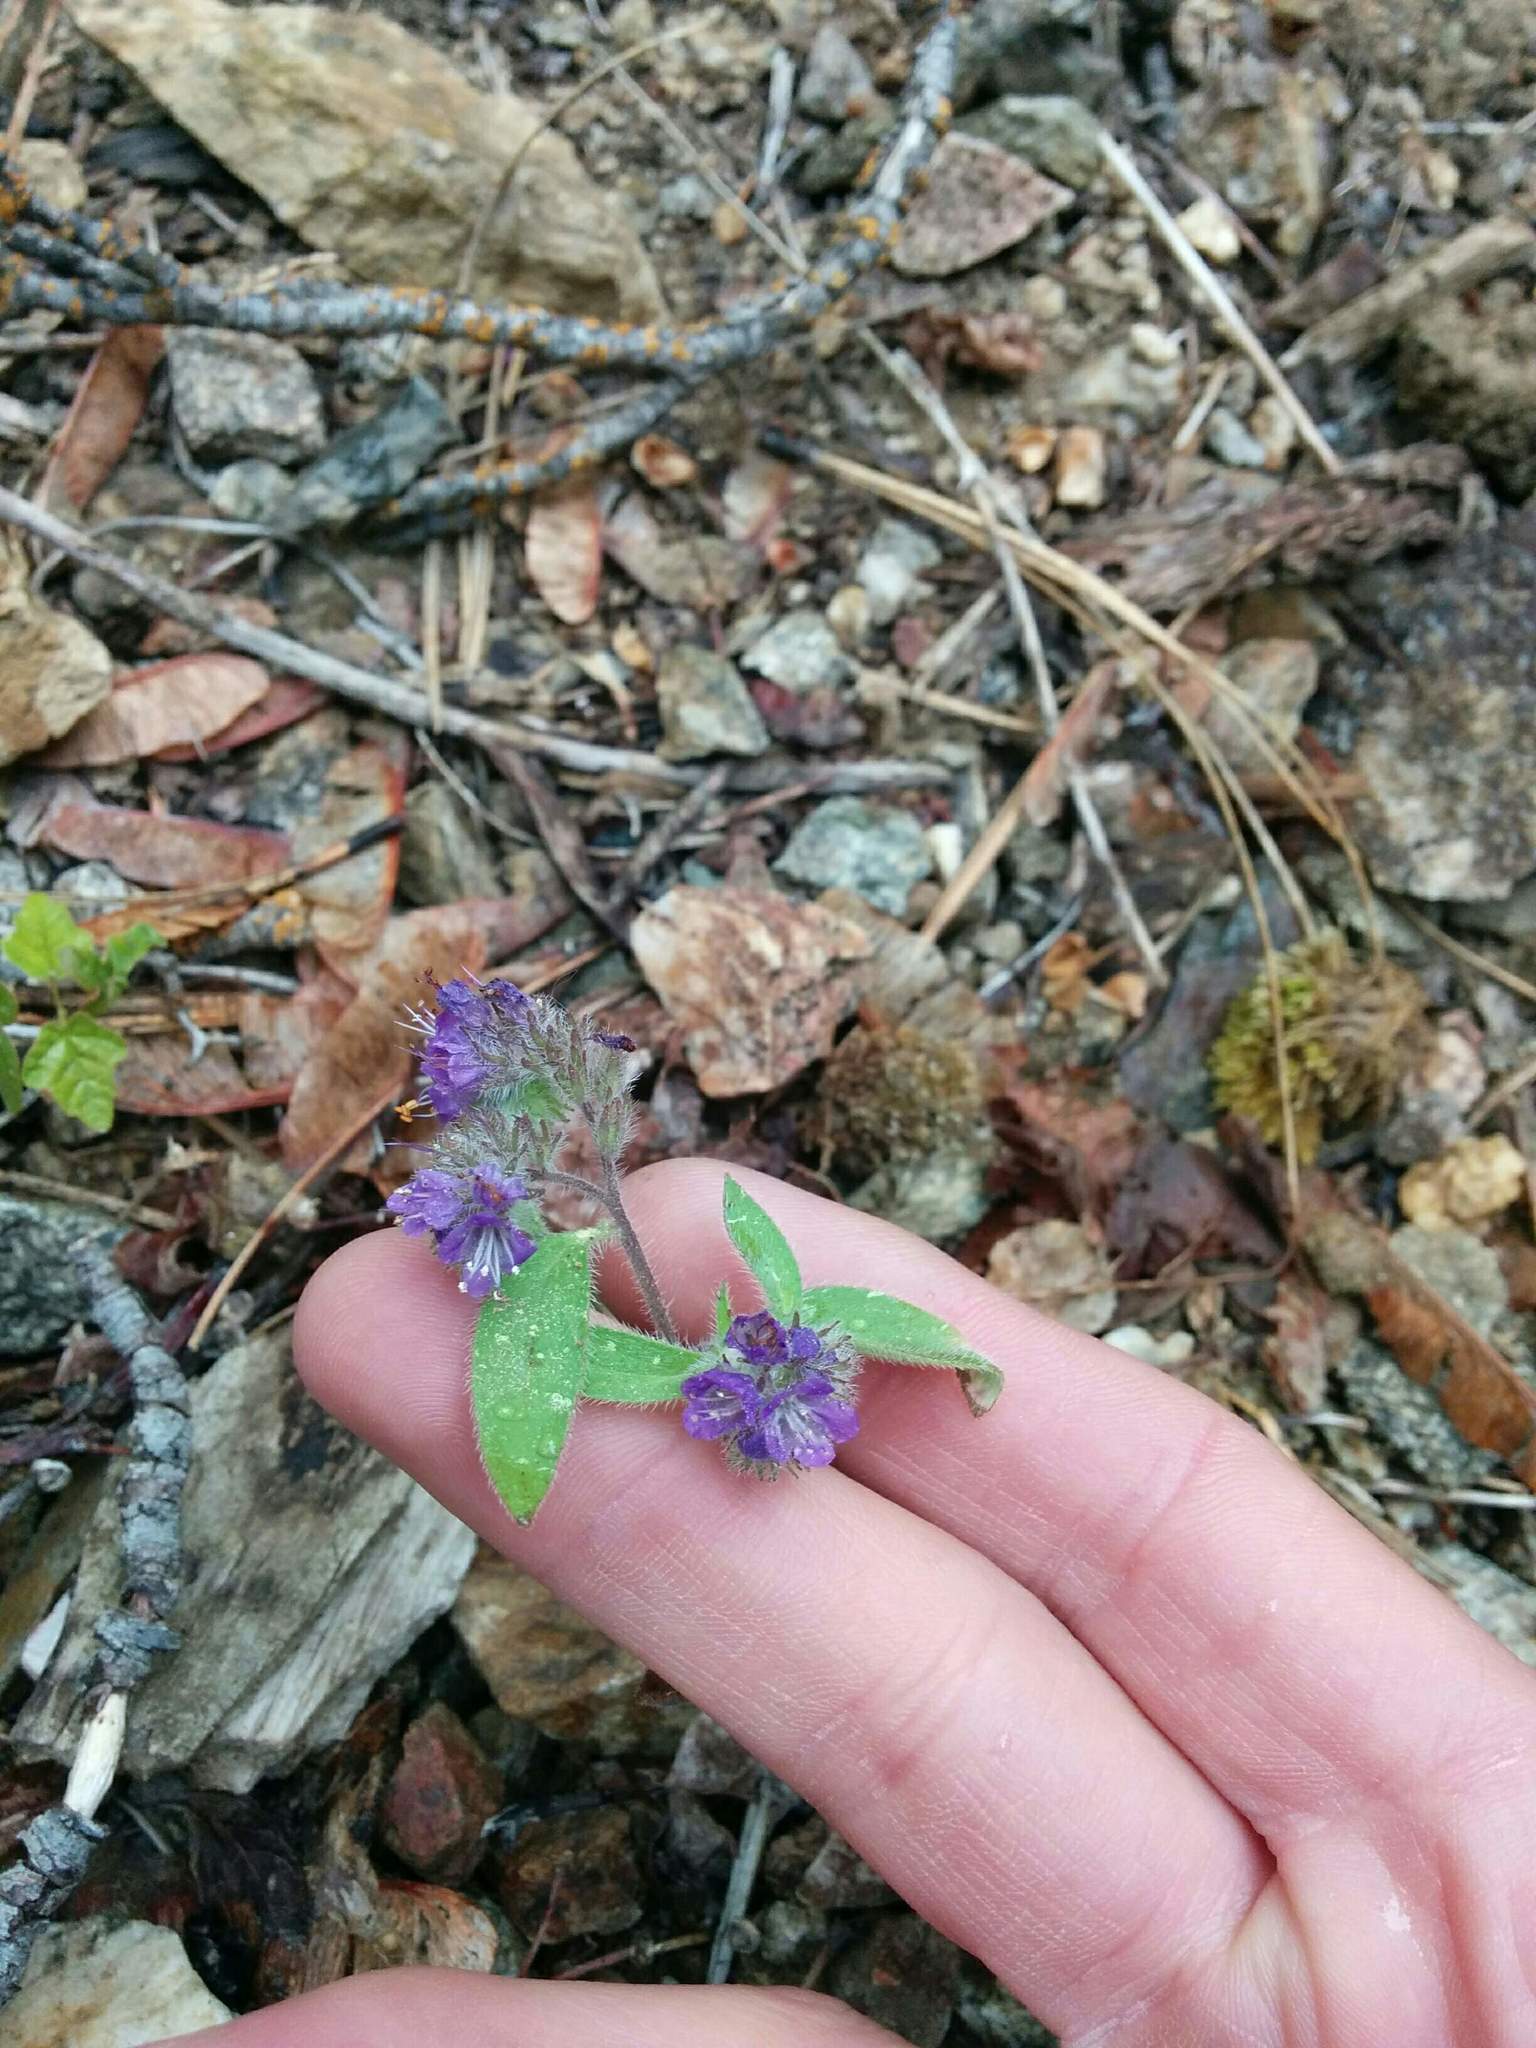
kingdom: Plantae
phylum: Tracheophyta
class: Magnoliopsida
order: Boraginales
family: Hydrophyllaceae
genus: Phacelia
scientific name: Phacelia humilis
